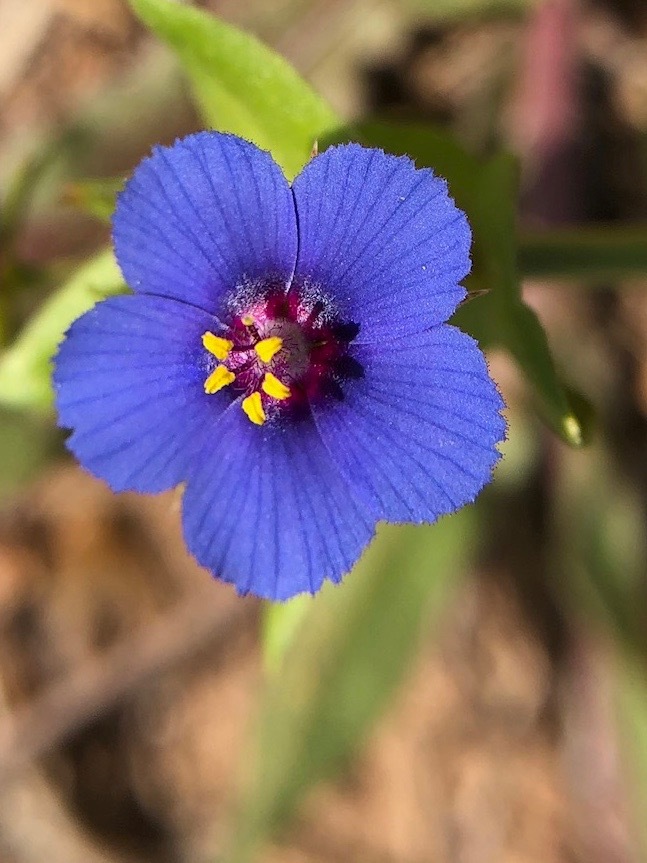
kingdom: Plantae
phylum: Tracheophyta
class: Magnoliopsida
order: Ericales
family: Primulaceae
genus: Lysimachia
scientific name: Lysimachia arvensis
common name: Scarlet pimpernel
